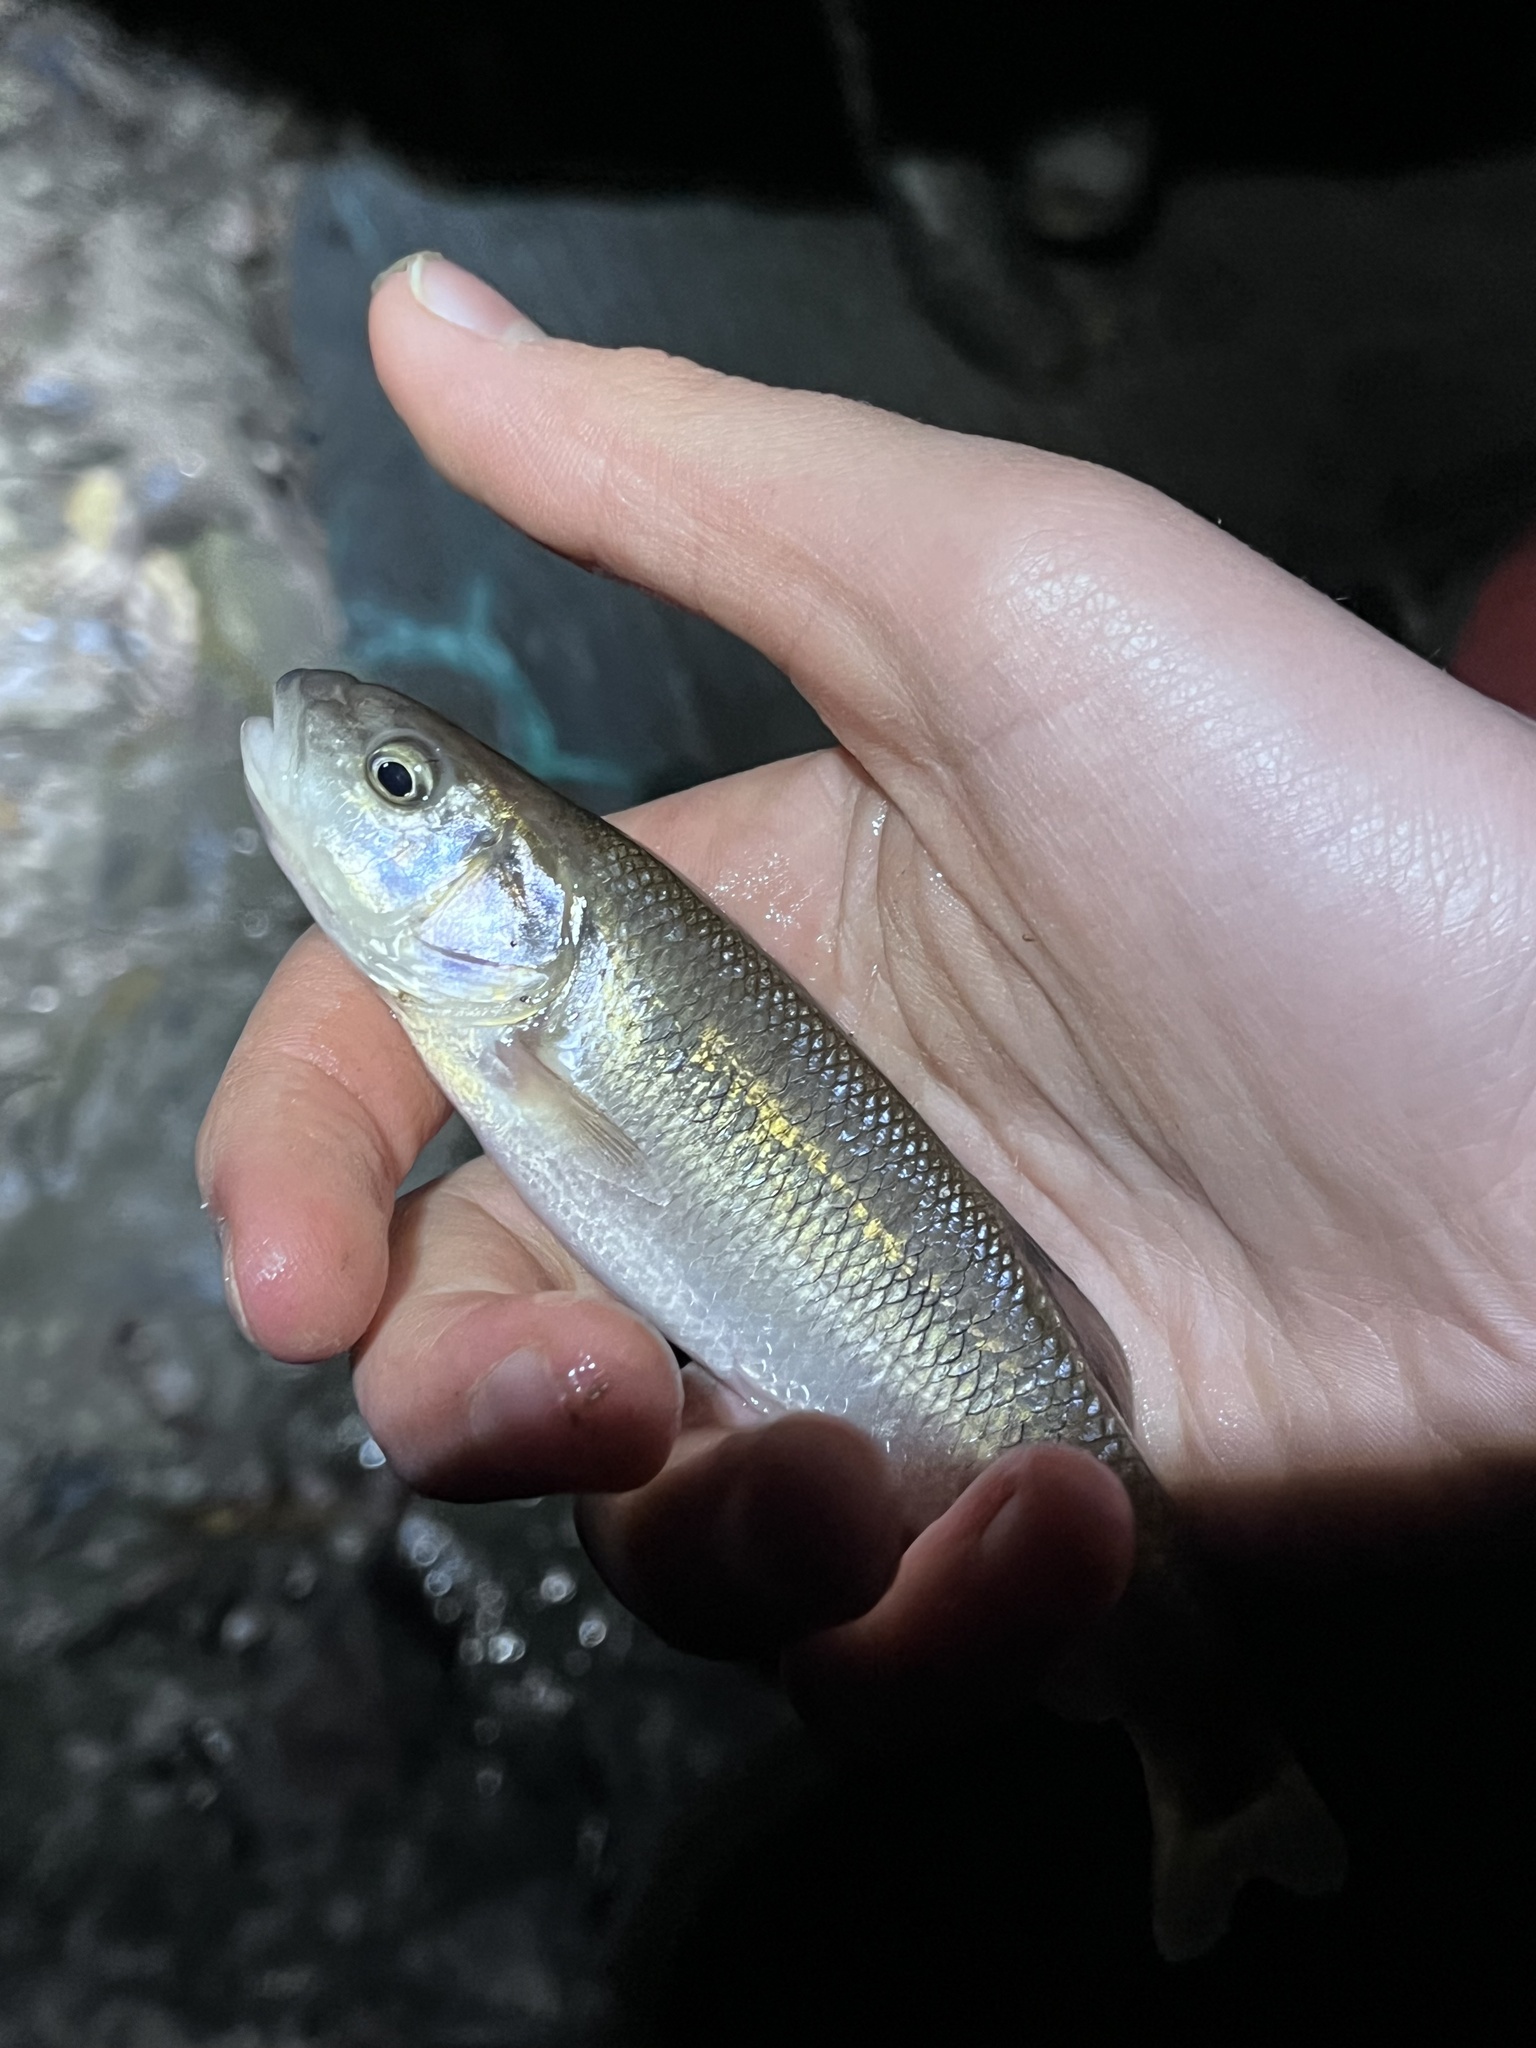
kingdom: Animalia
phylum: Chordata
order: Cypriniformes
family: Cyprinidae
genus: Semotilus
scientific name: Semotilus atromaculatus
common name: Creek chub
